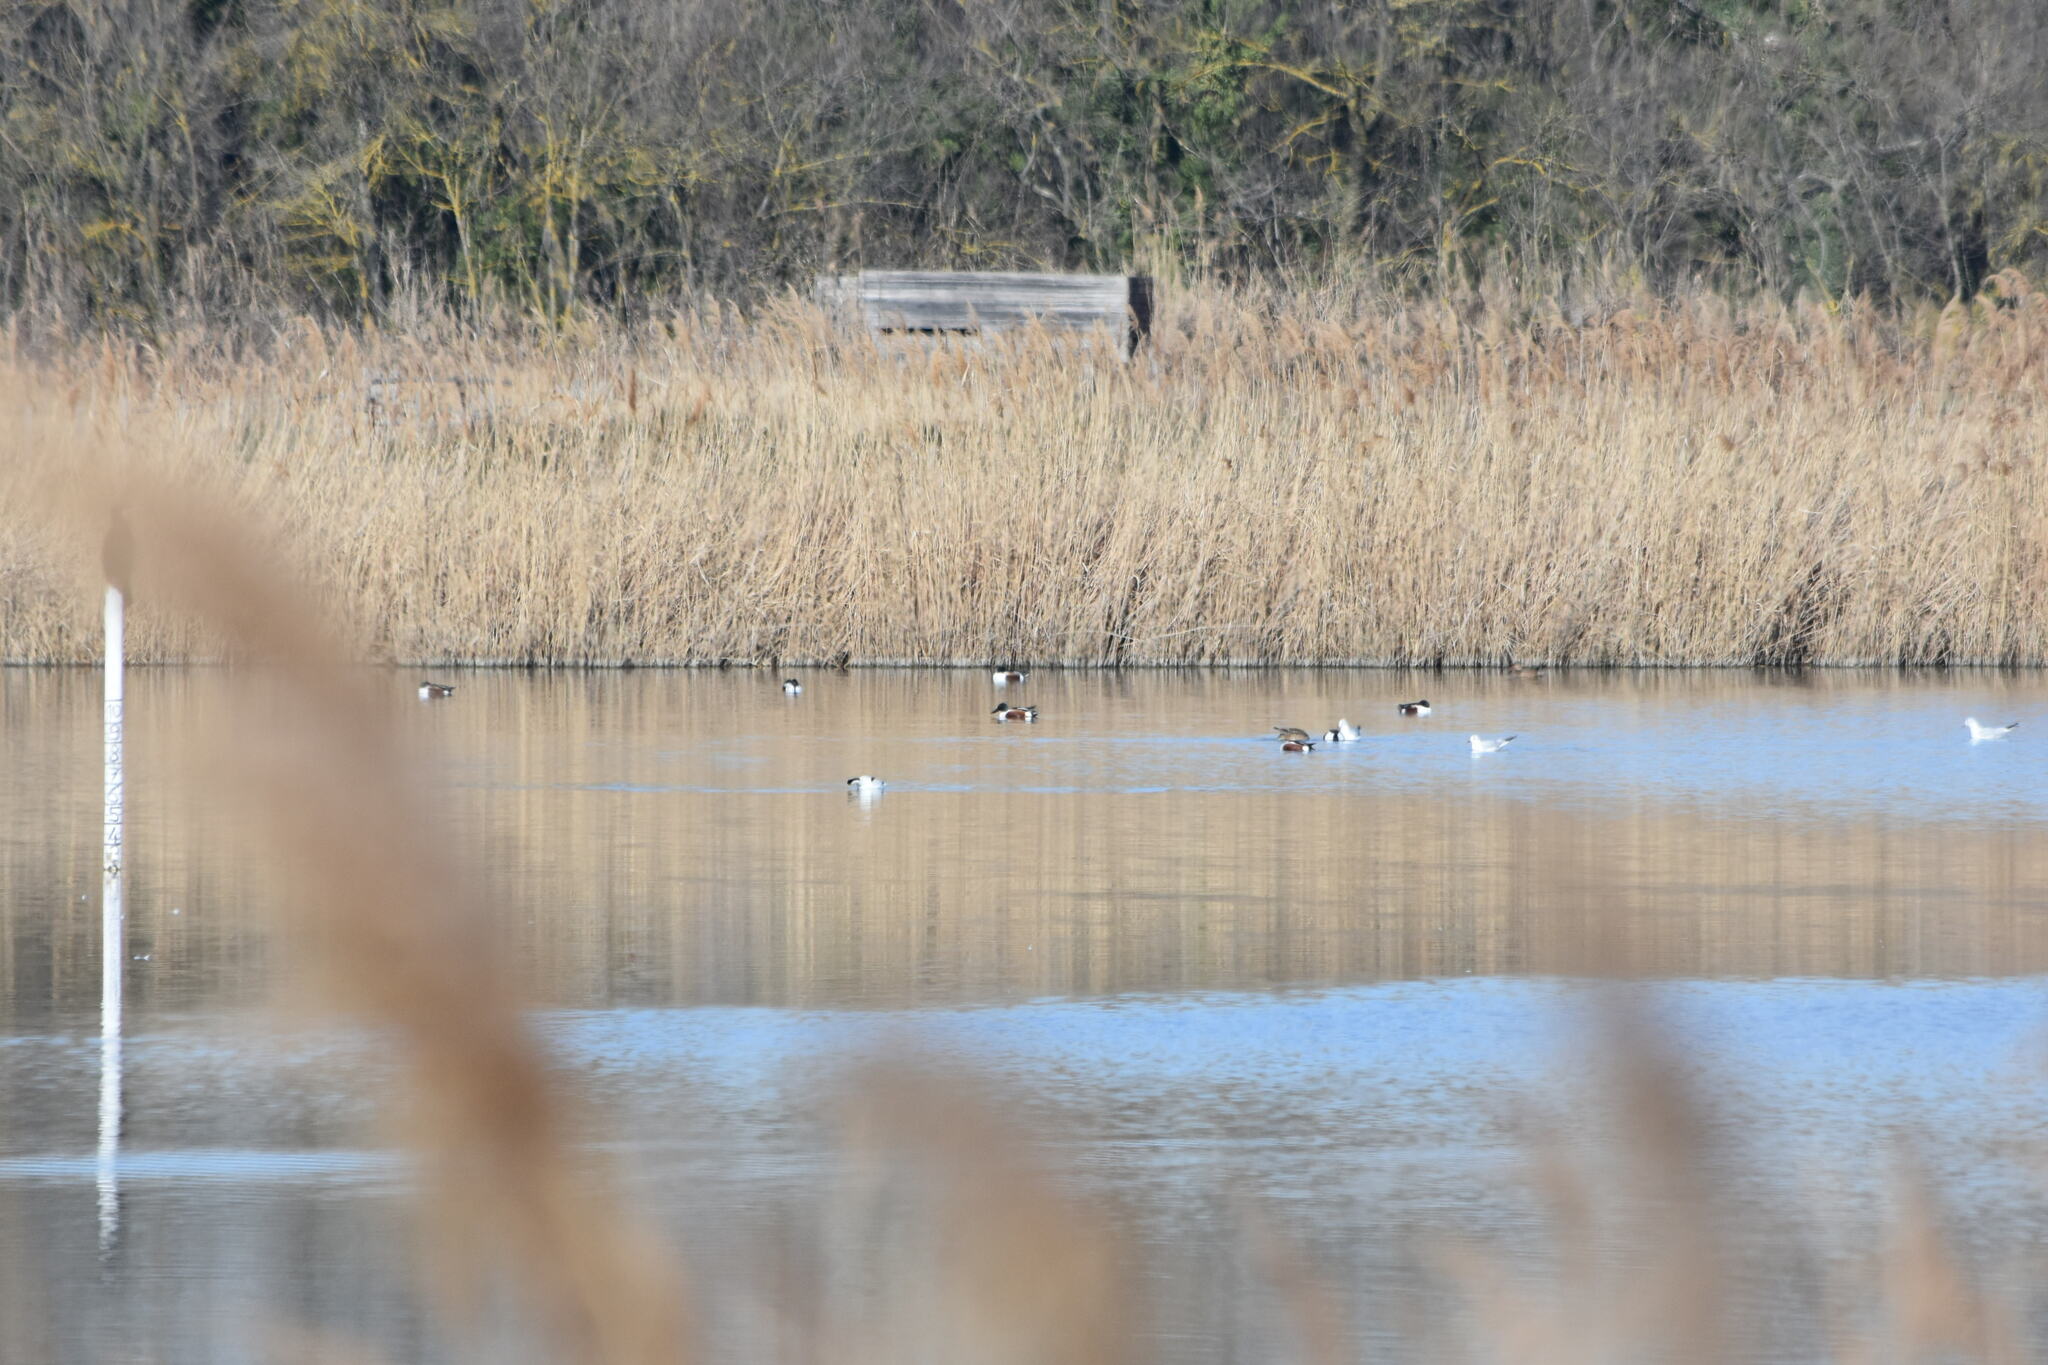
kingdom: Animalia
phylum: Chordata
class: Aves
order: Anseriformes
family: Anatidae
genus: Spatula
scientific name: Spatula clypeata
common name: Northern shoveler
